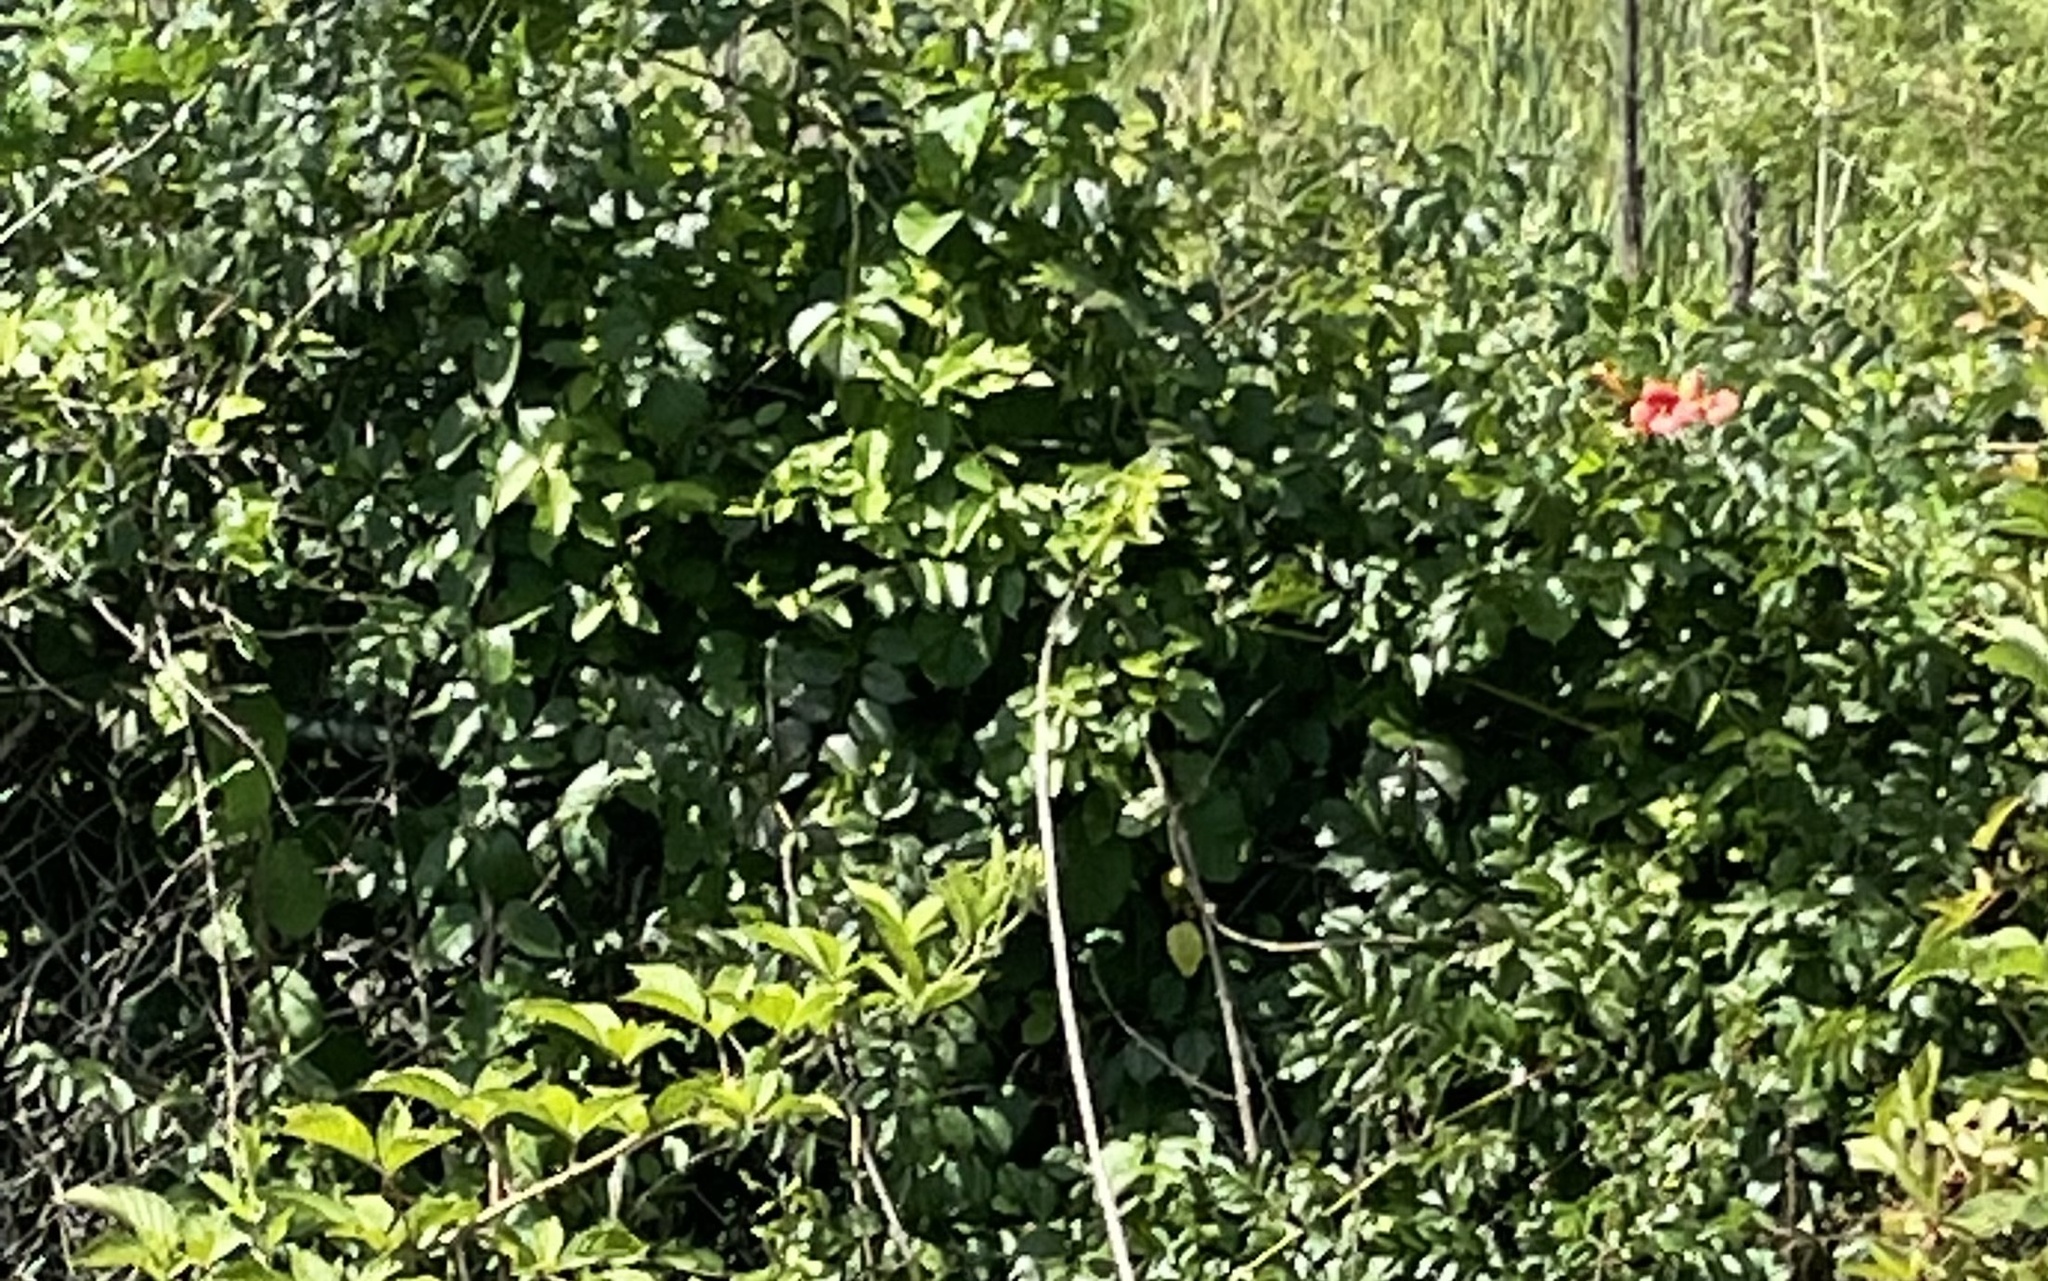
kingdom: Plantae
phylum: Tracheophyta
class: Magnoliopsida
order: Lamiales
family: Bignoniaceae
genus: Campsis
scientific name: Campsis radicans
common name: Trumpet-creeper
